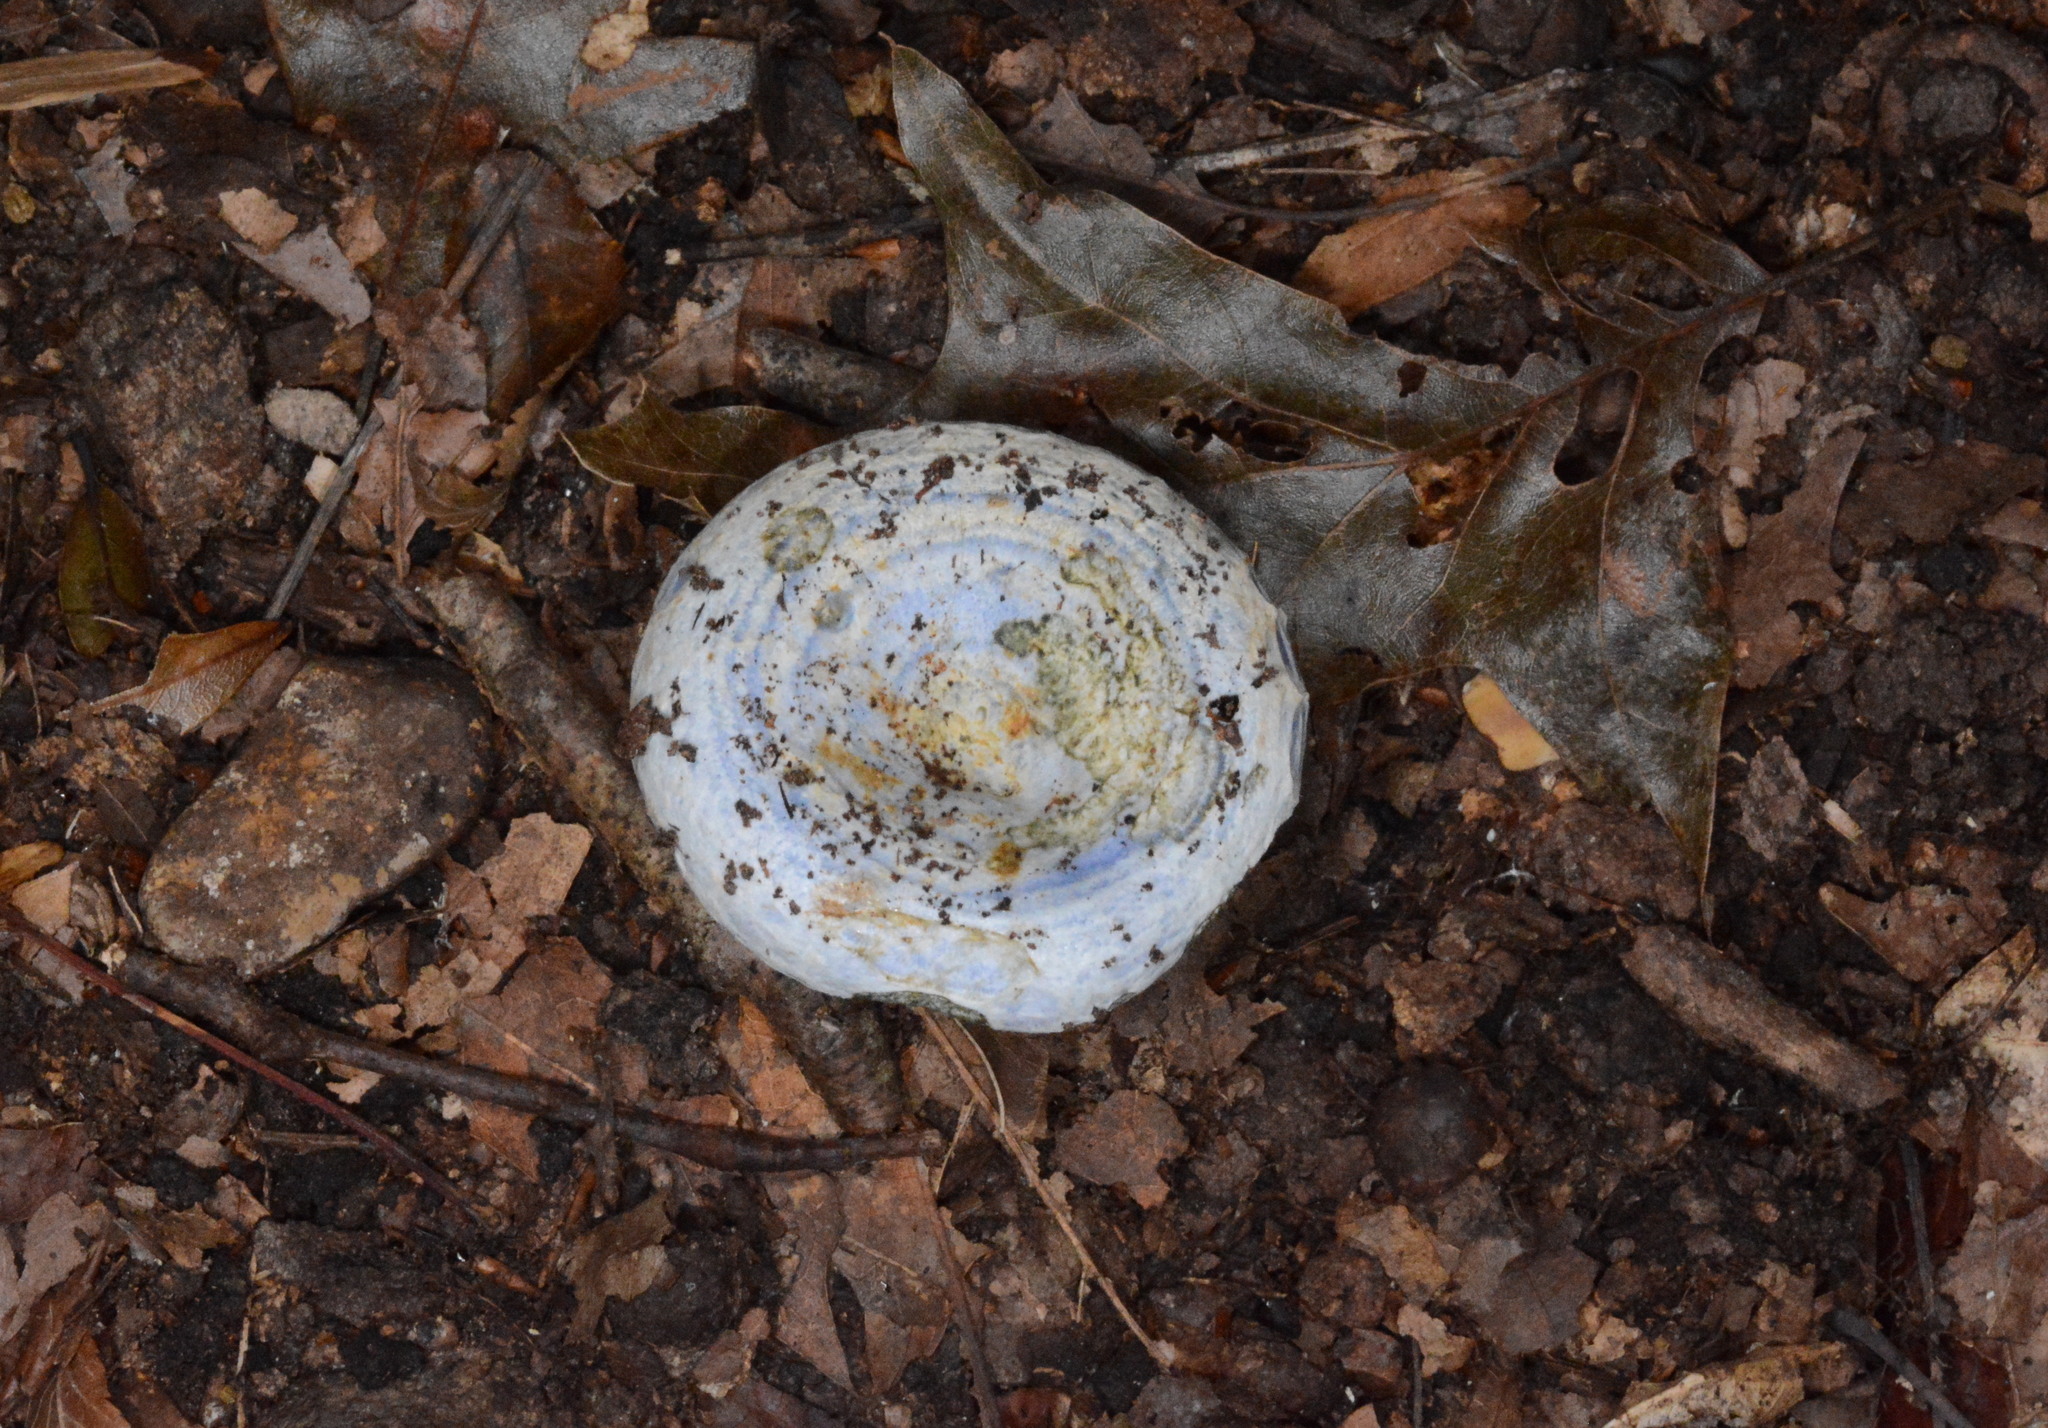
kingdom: Fungi
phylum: Basidiomycota
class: Agaricomycetes
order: Russulales
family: Russulaceae
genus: Lactarius
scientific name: Lactarius indigo
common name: Indigo milk cap
